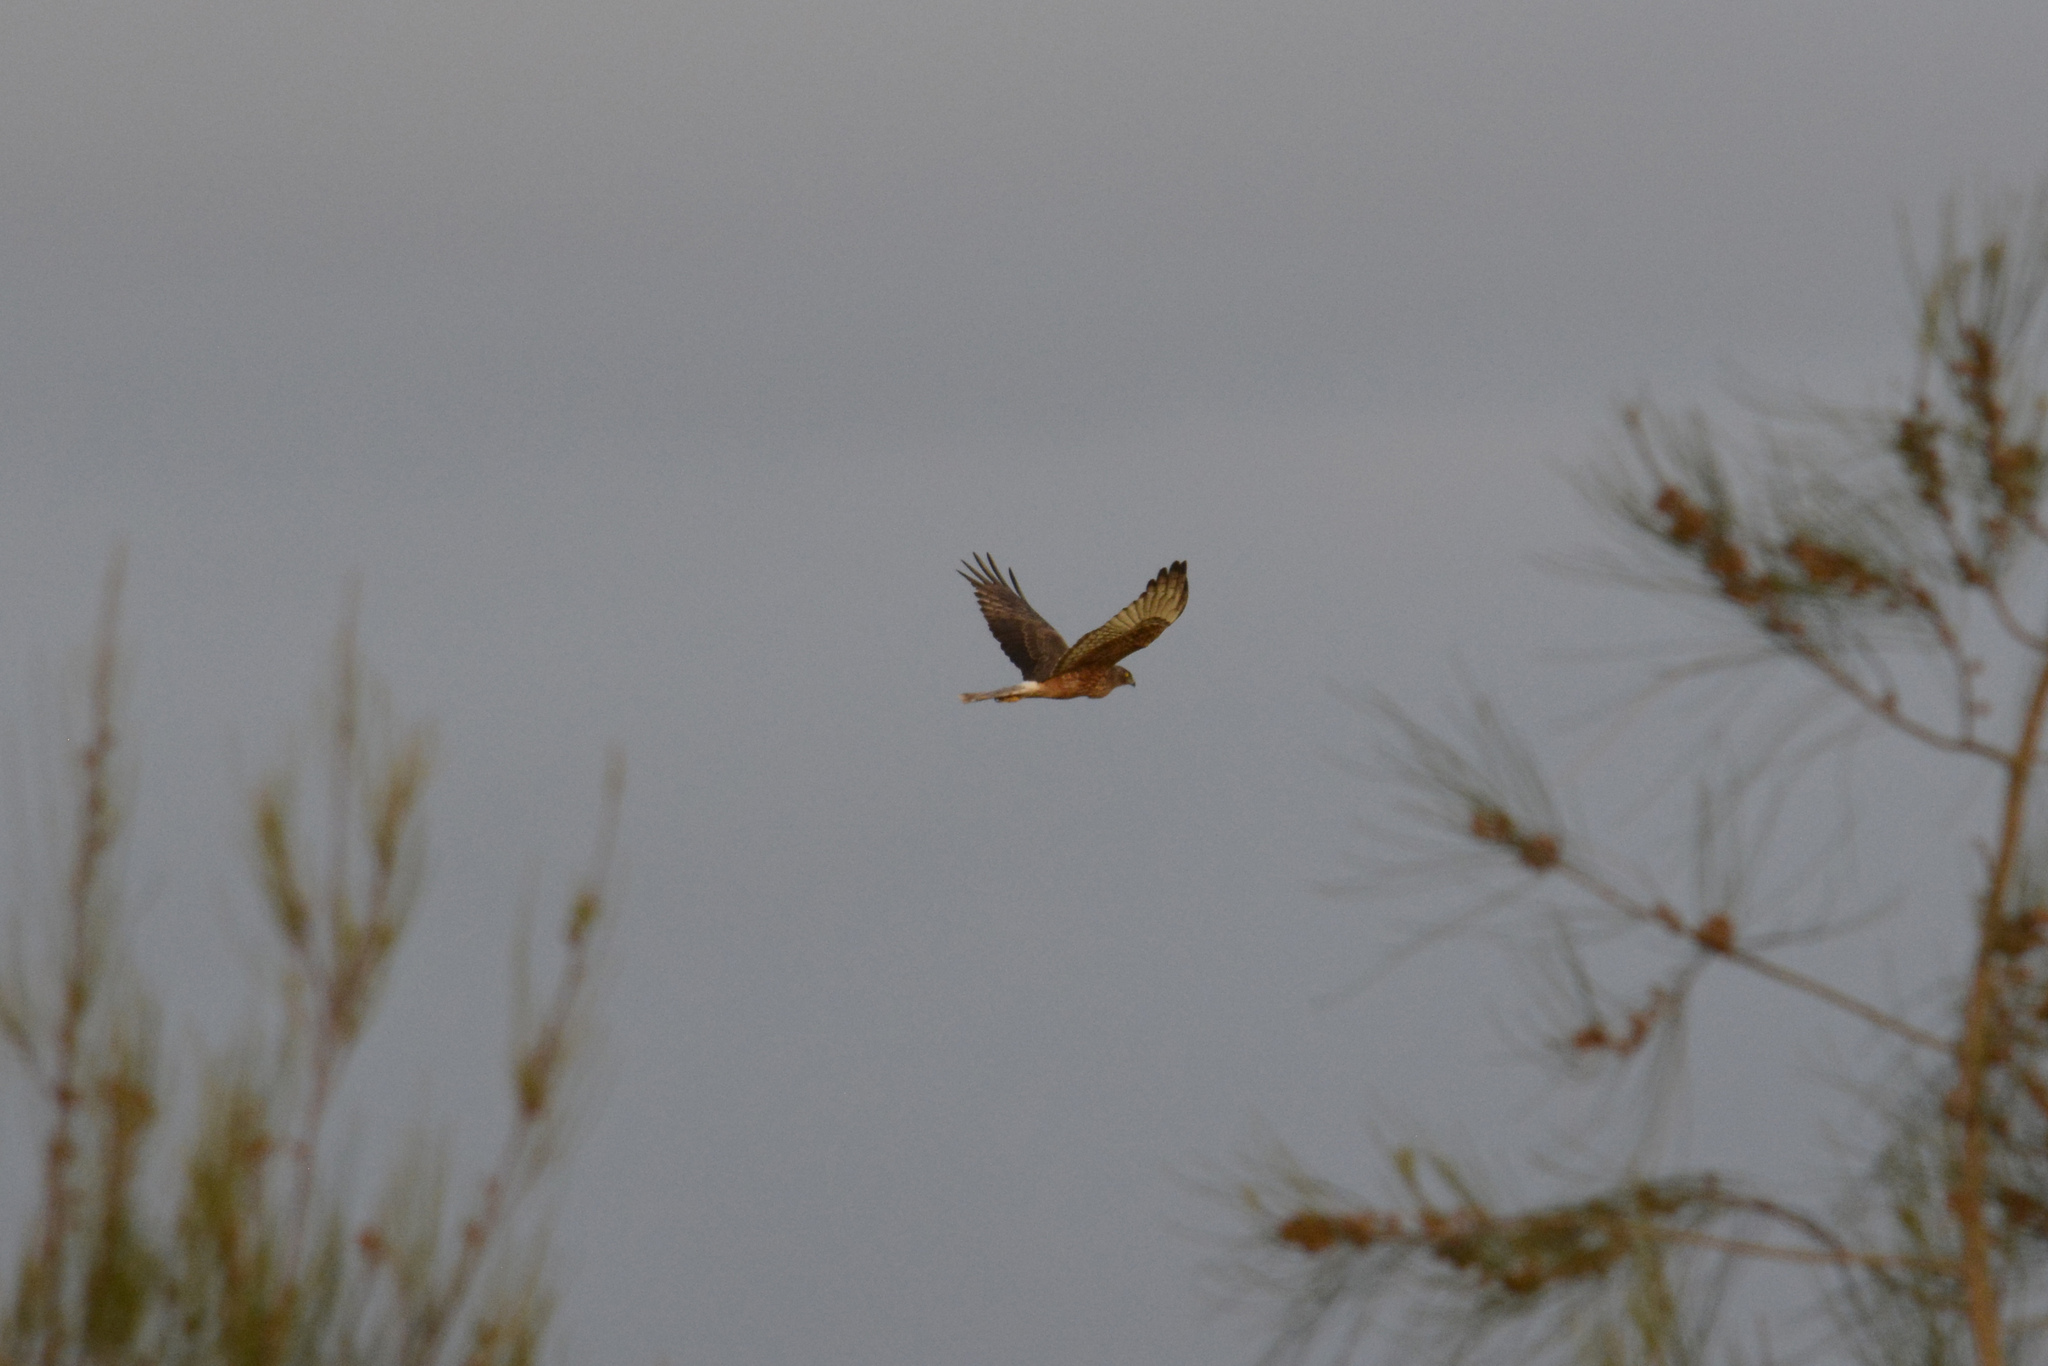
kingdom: Animalia
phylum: Chordata
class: Aves
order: Accipitriformes
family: Accipitridae
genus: Circus
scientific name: Circus approximans
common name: Swamp harrier
